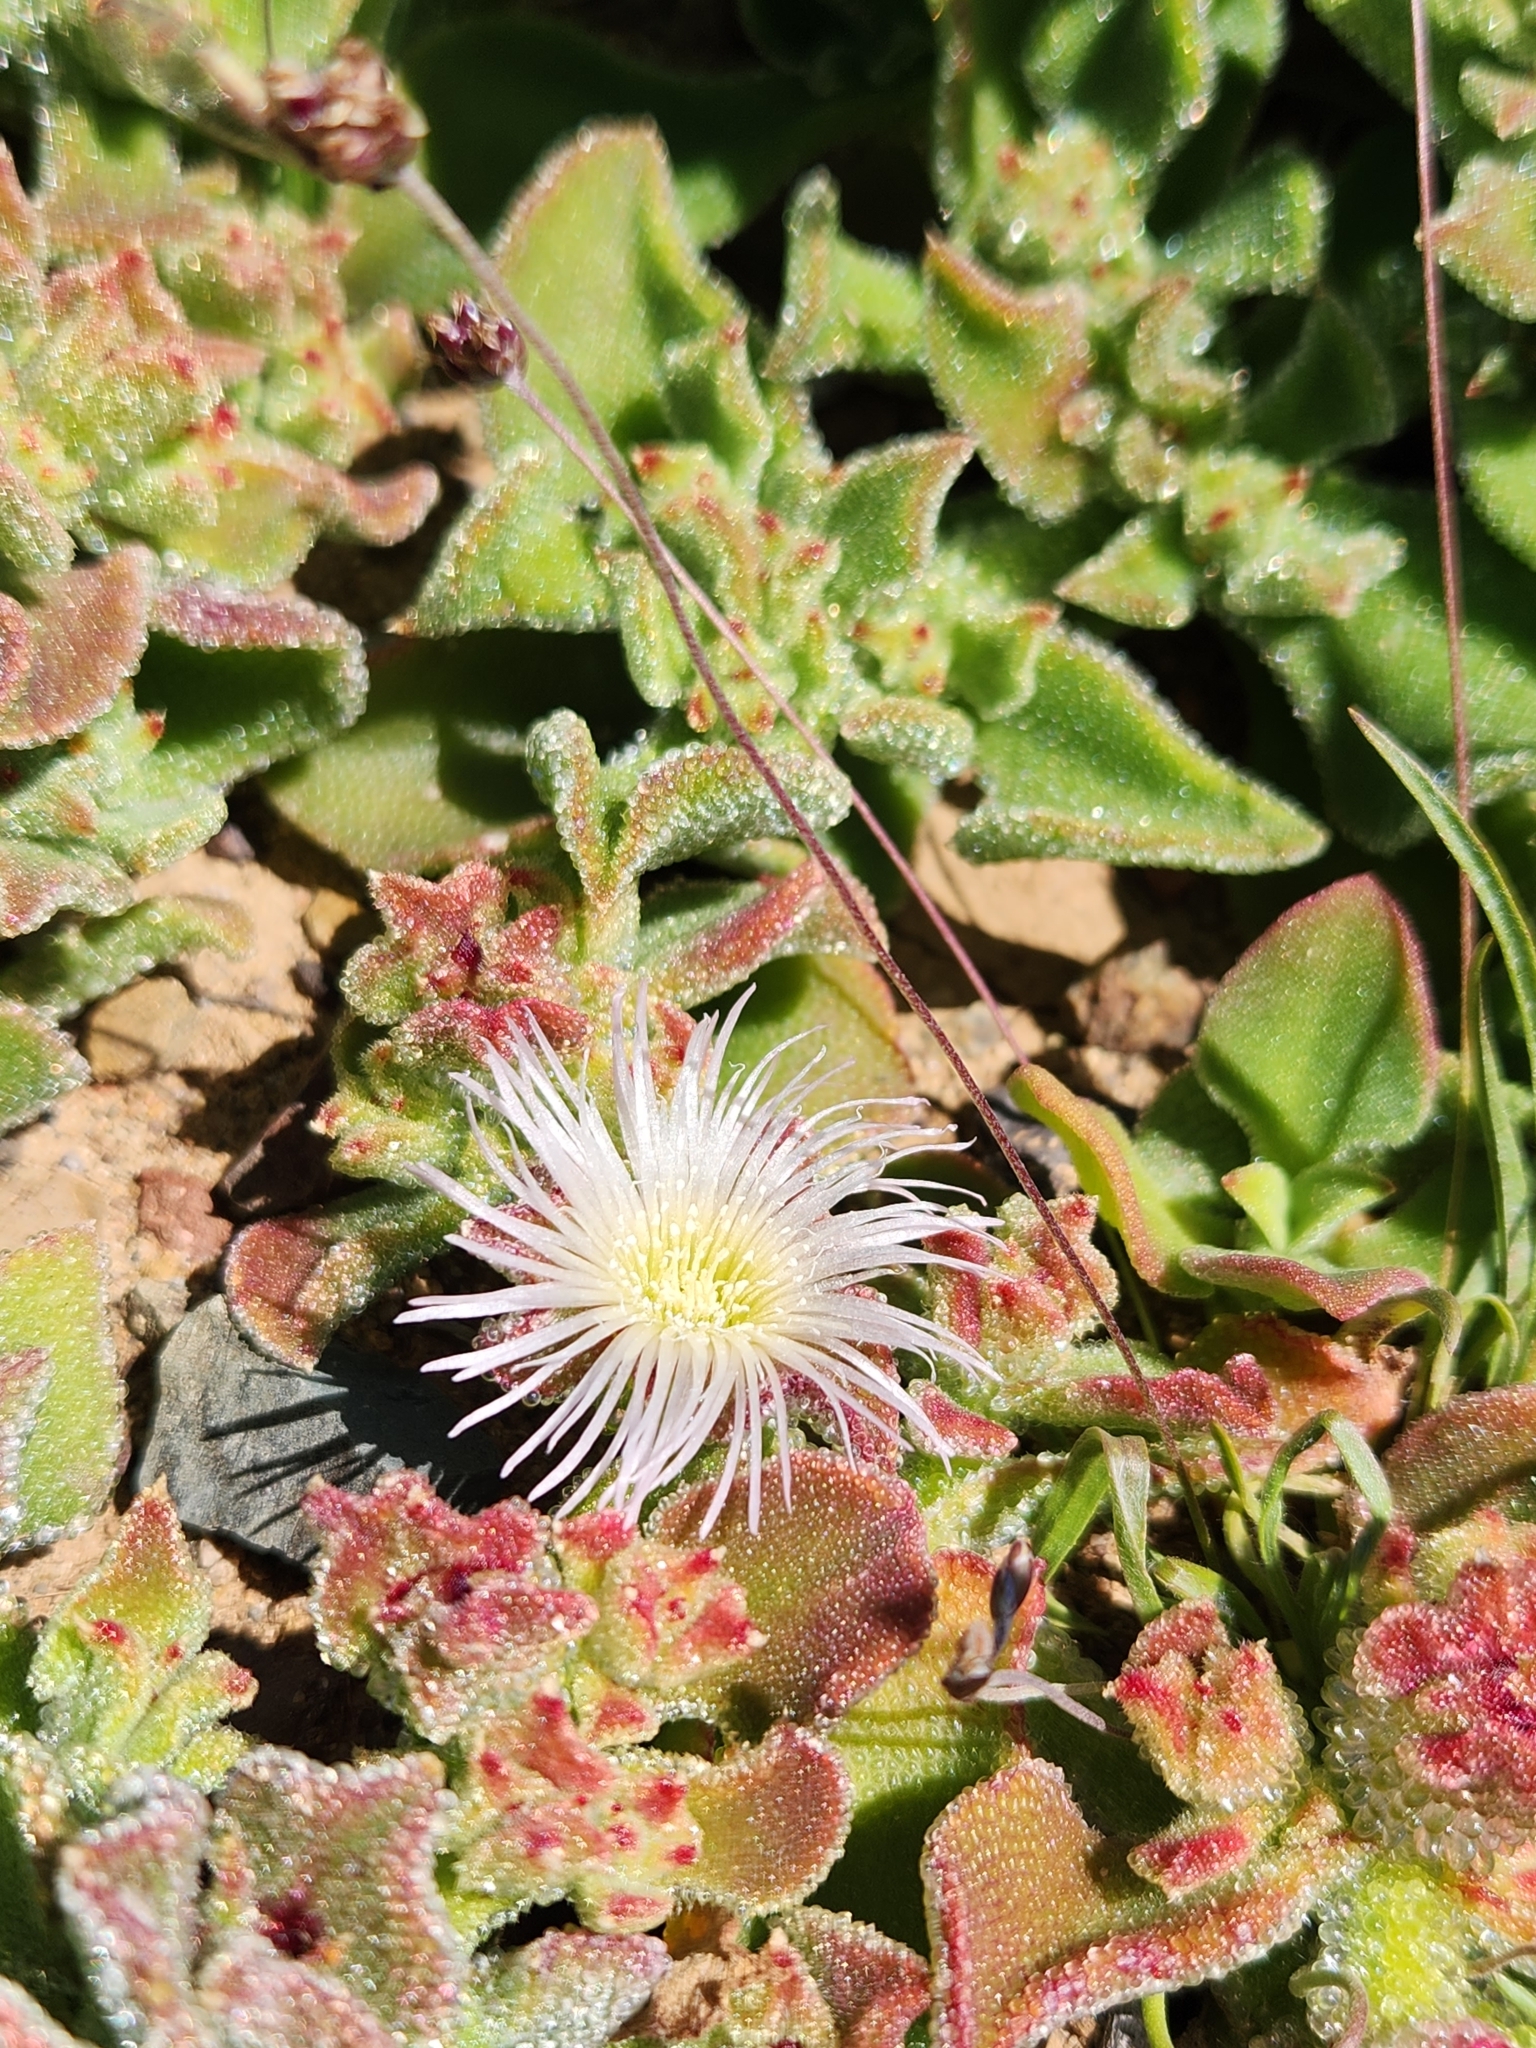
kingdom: Plantae
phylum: Tracheophyta
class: Magnoliopsida
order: Caryophyllales
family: Aizoaceae
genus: Mesembryanthemum
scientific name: Mesembryanthemum crystallinum
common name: Common iceplant
